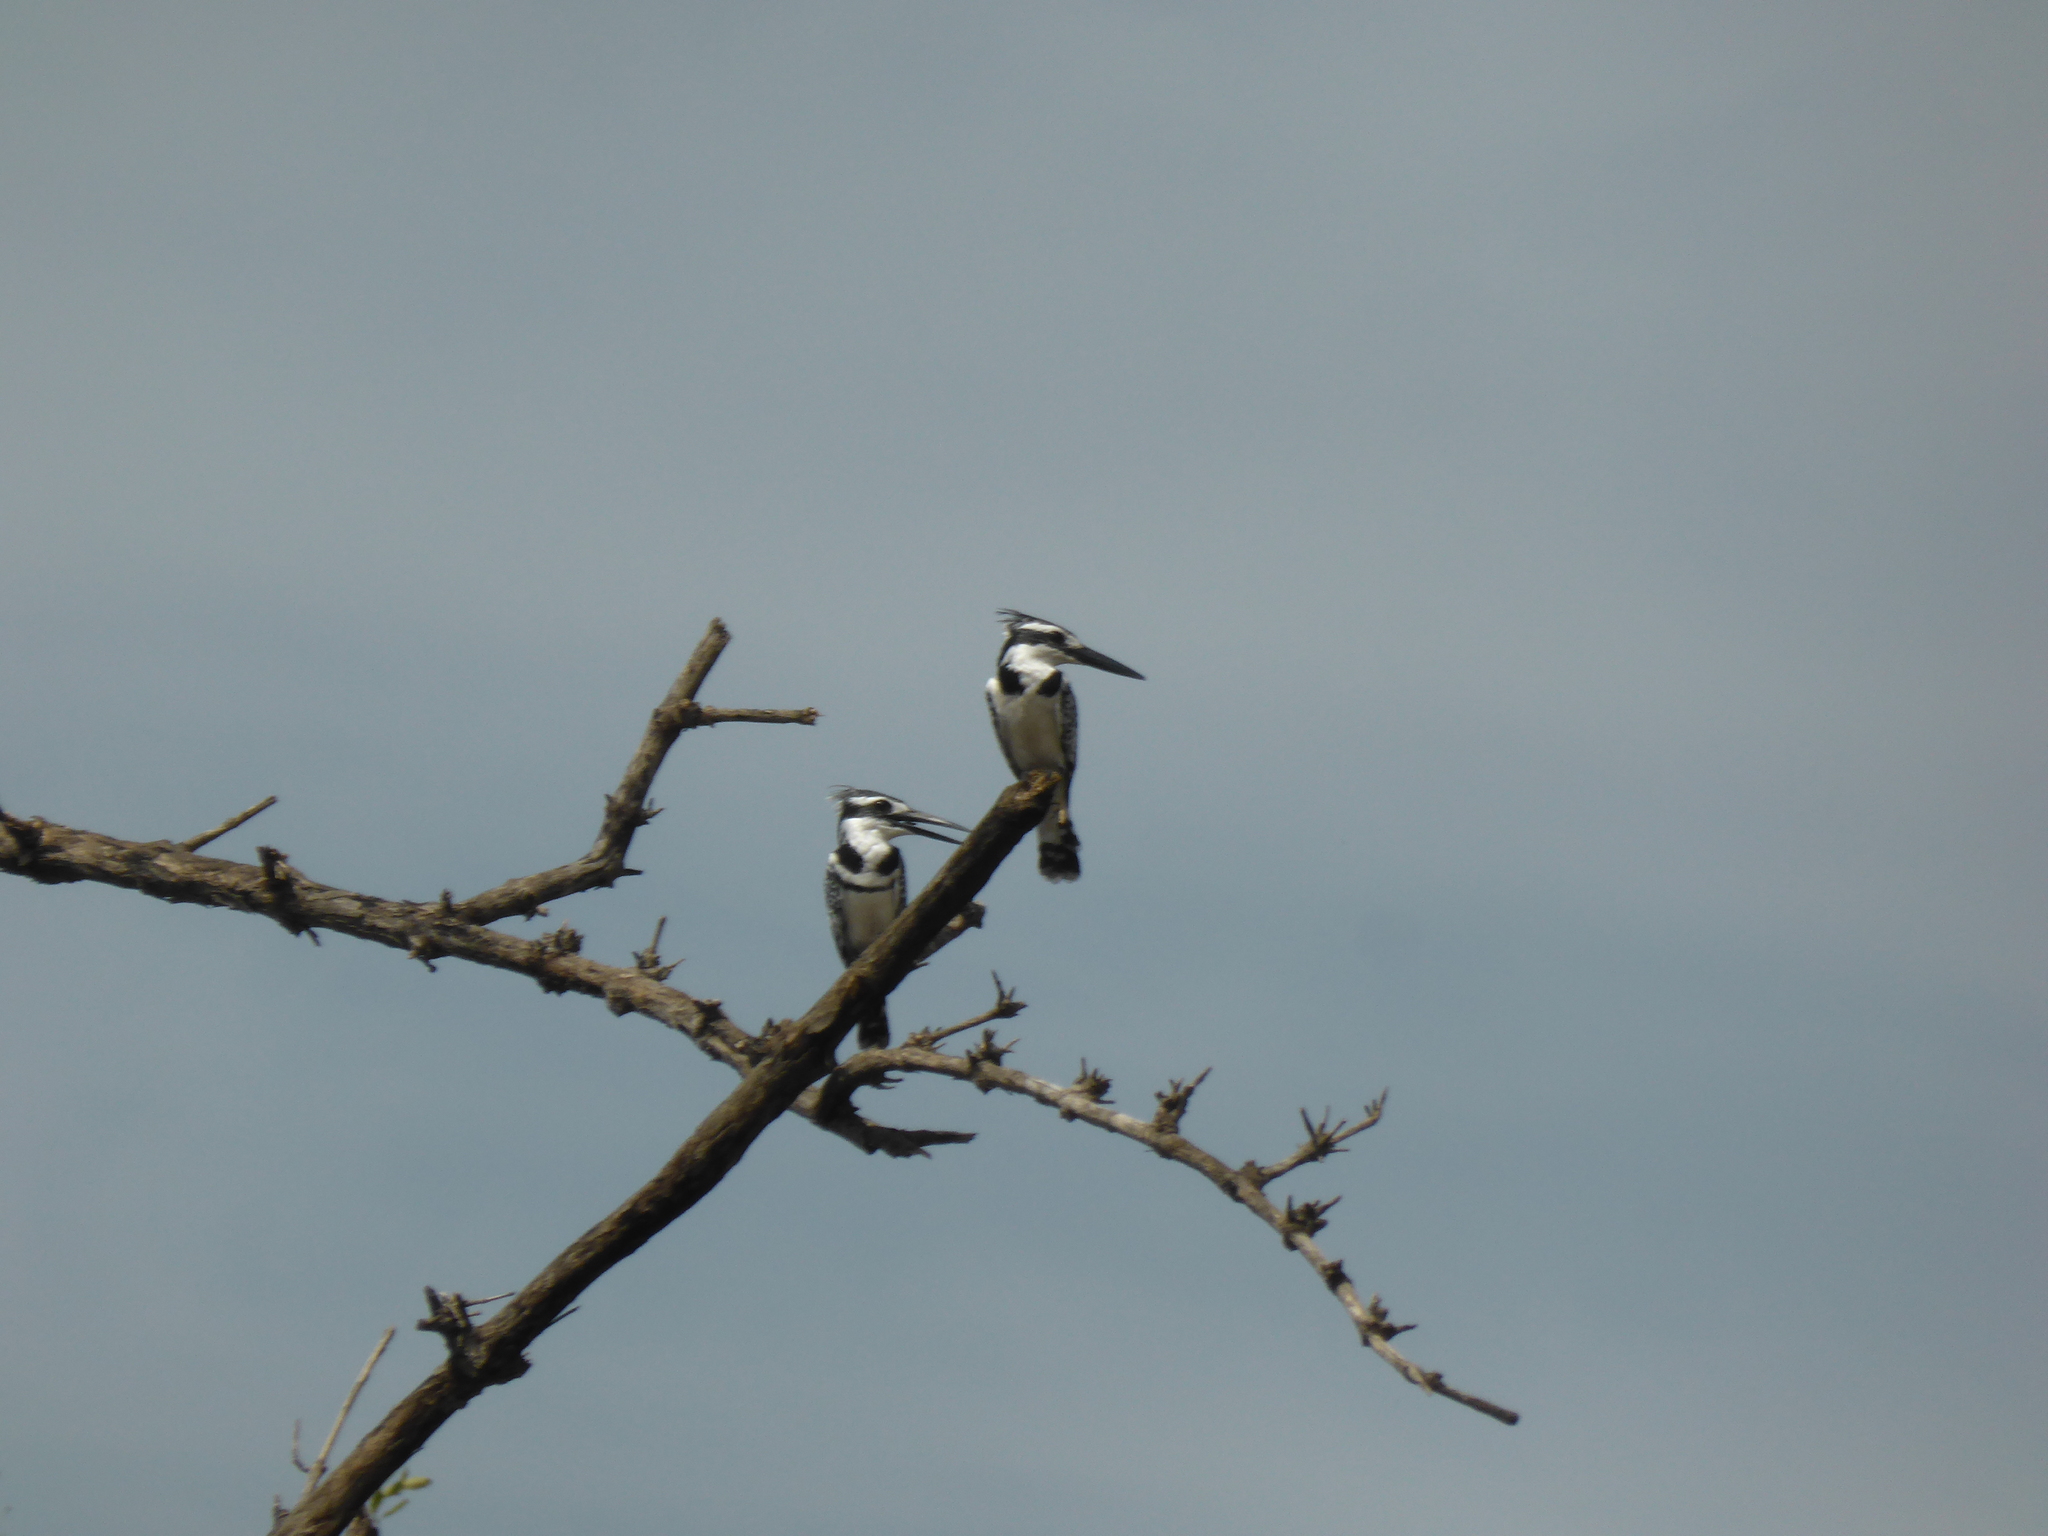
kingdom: Animalia
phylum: Chordata
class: Aves
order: Coraciiformes
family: Alcedinidae
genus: Ceryle
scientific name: Ceryle rudis
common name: Pied kingfisher
